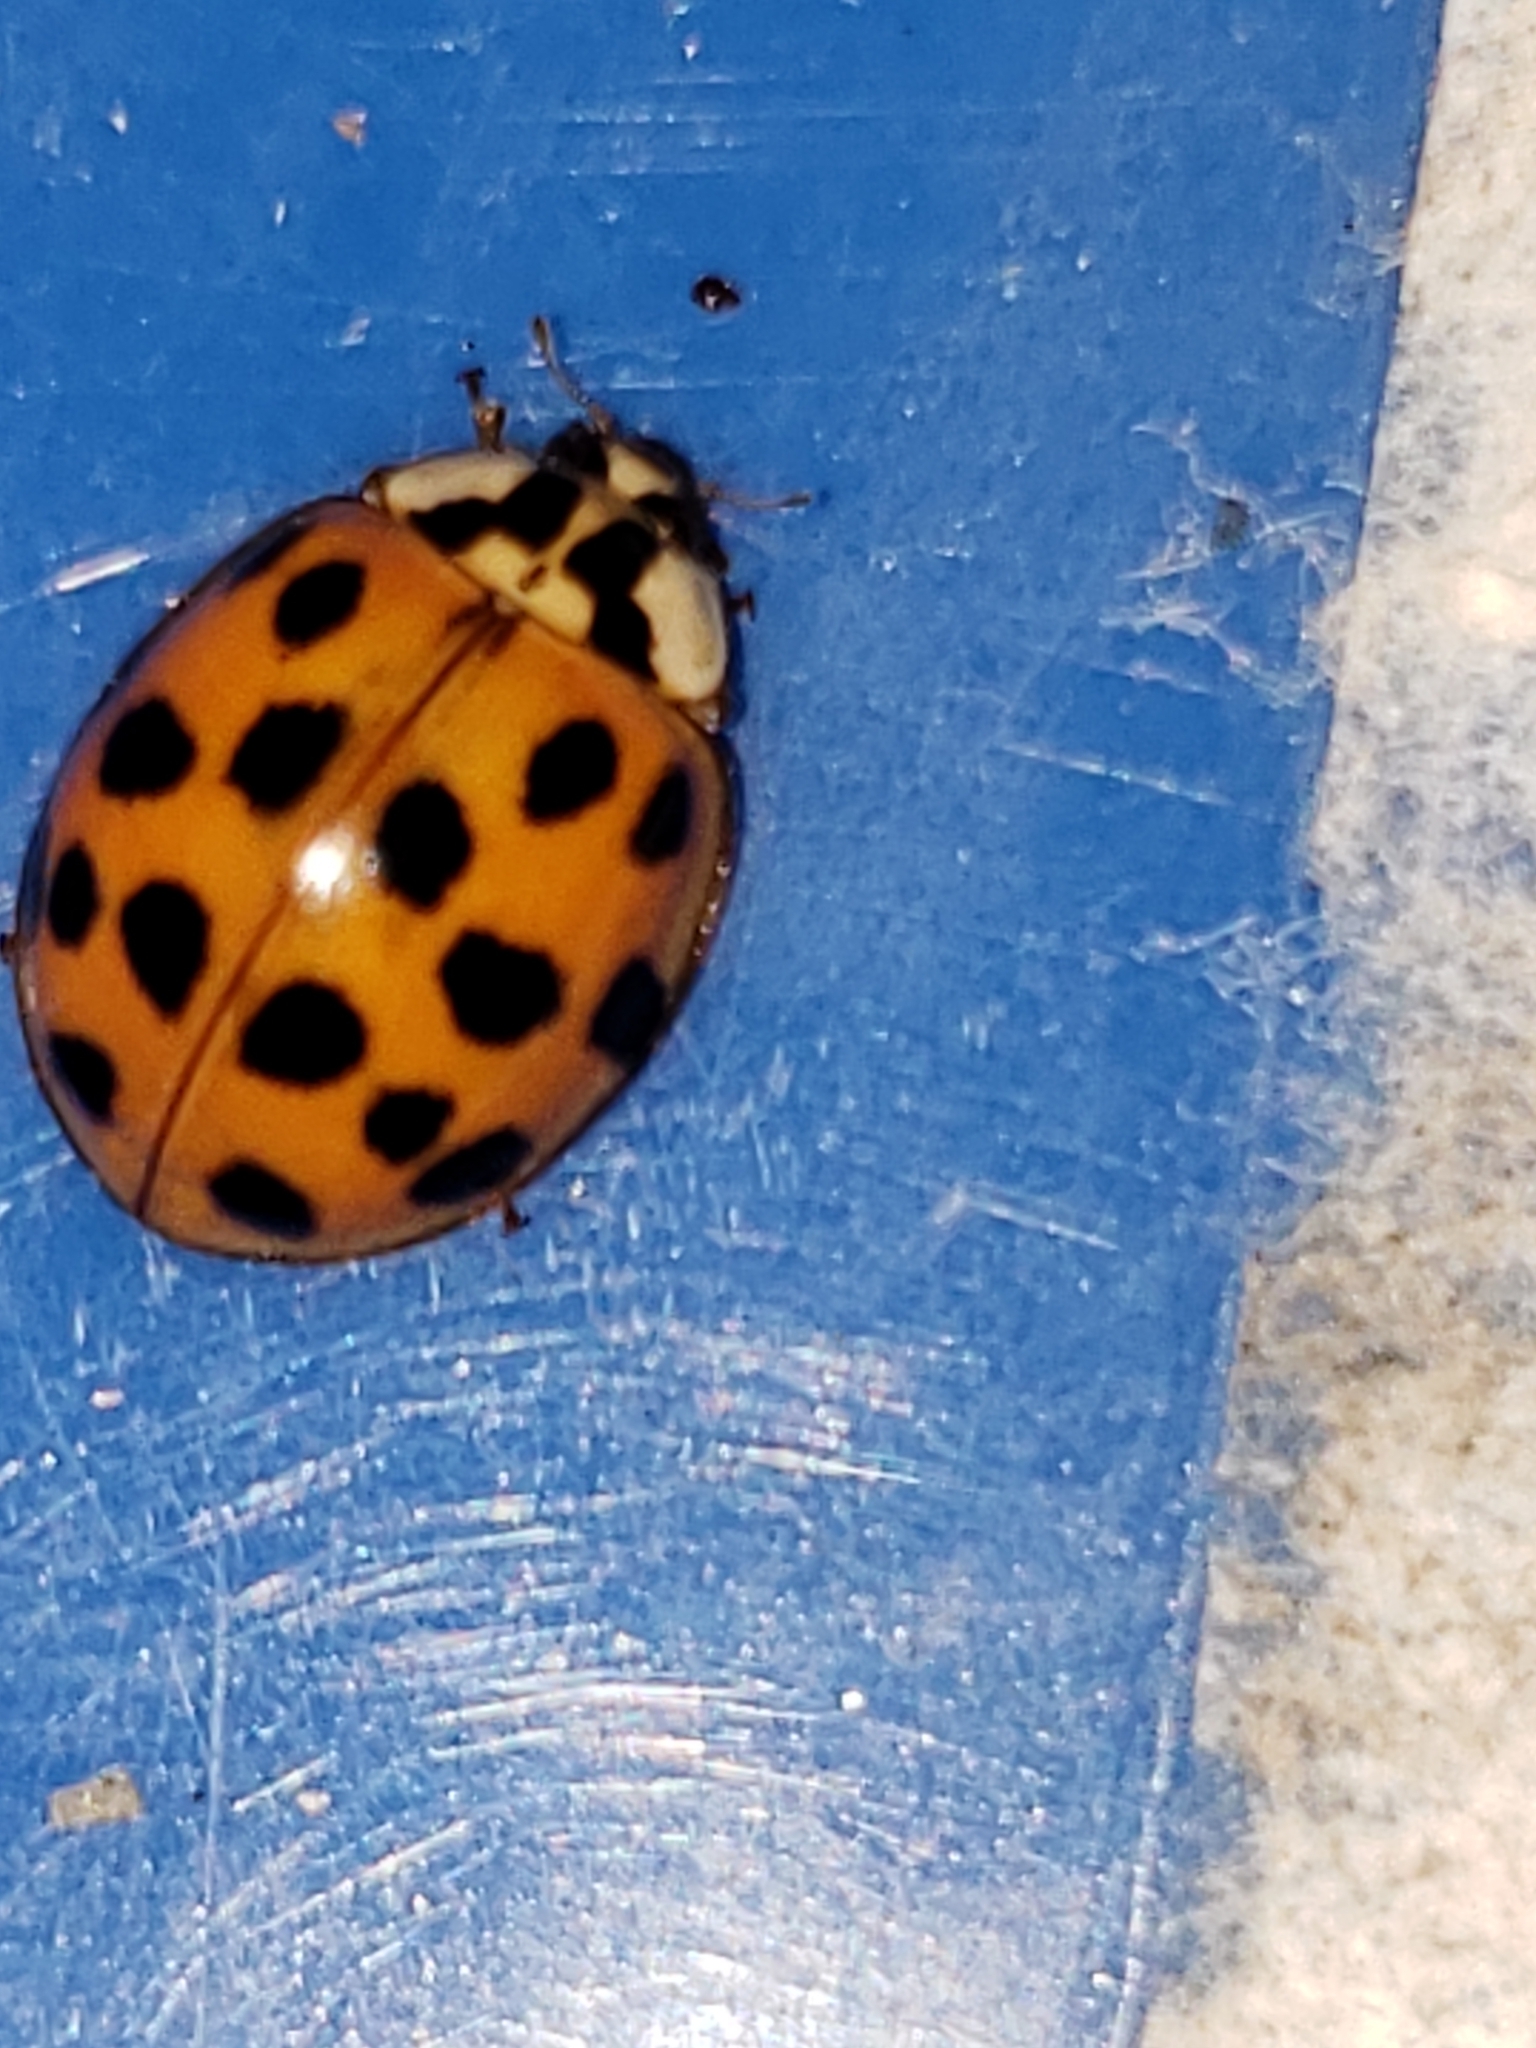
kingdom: Animalia
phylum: Arthropoda
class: Insecta
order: Coleoptera
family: Coccinellidae
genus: Harmonia
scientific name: Harmonia axyridis
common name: Harlequin ladybird
